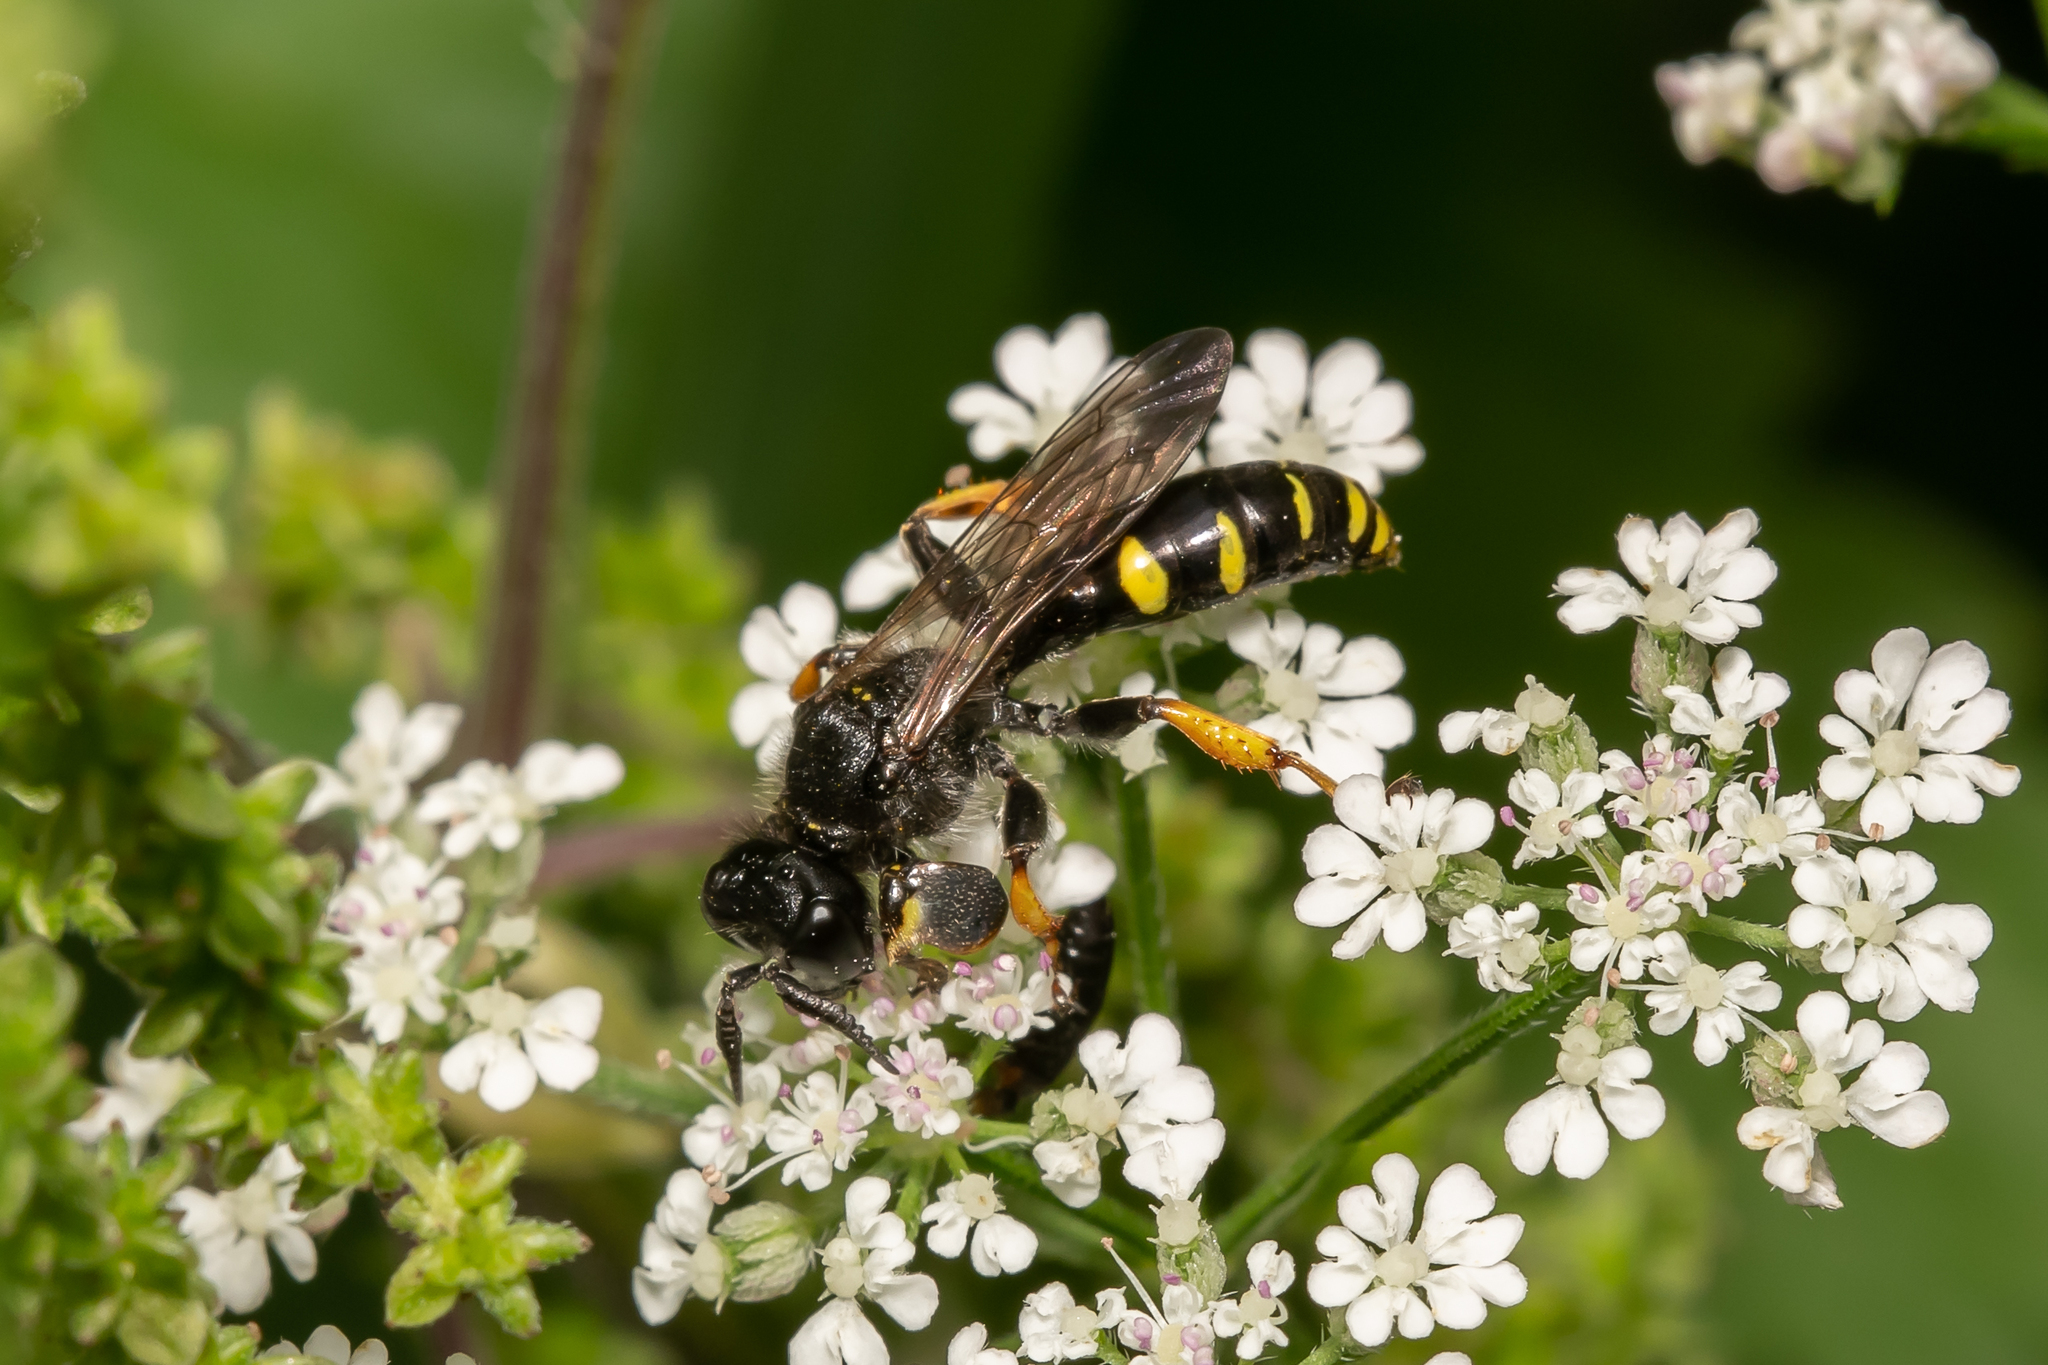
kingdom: Animalia
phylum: Arthropoda
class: Insecta
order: Hymenoptera
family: Crabronidae
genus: Crabro
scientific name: Crabro cribrarius
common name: Slender bodied digger wasp
